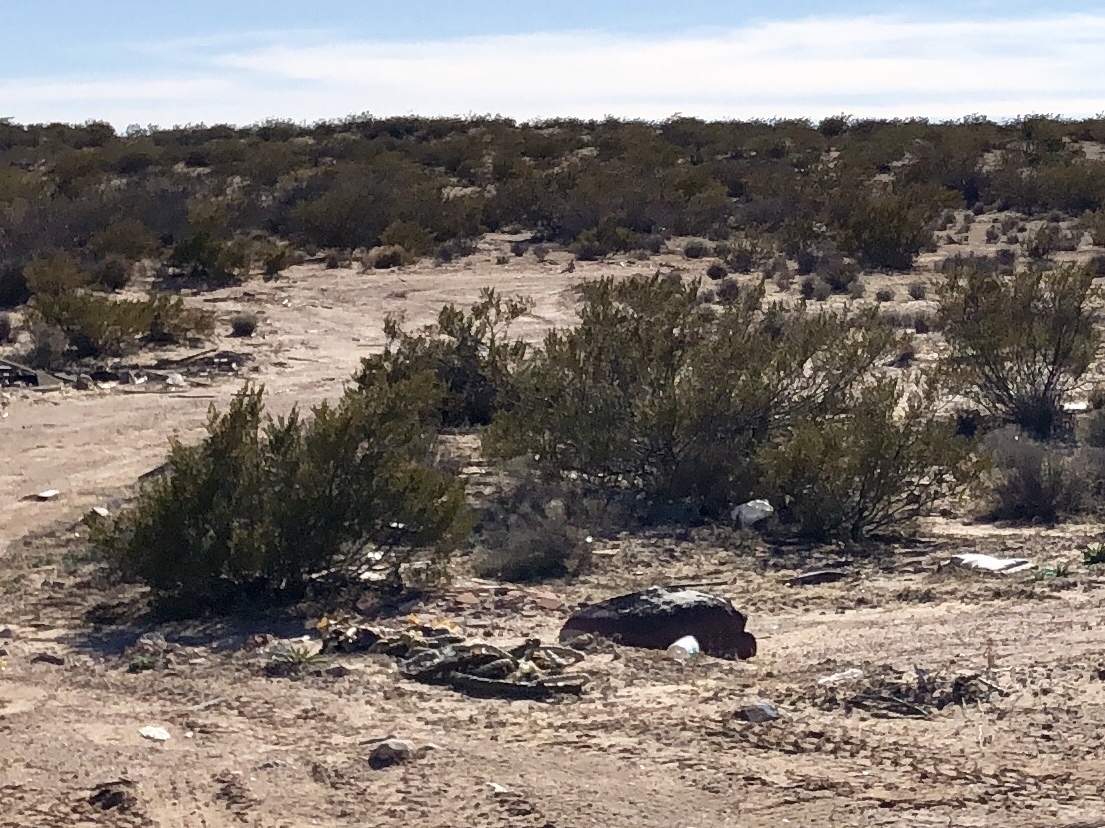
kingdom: Plantae
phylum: Tracheophyta
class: Magnoliopsida
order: Zygophyllales
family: Zygophyllaceae
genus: Larrea
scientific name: Larrea tridentata
